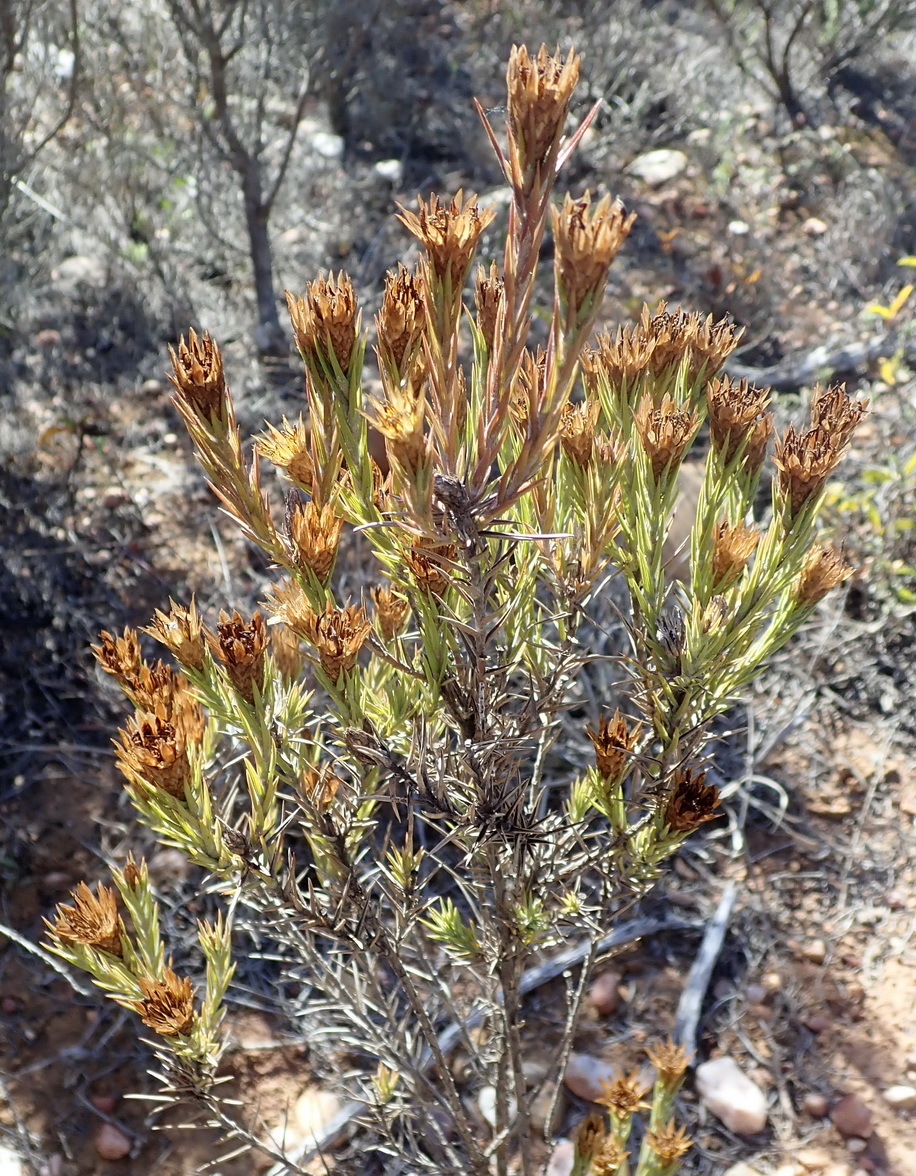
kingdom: Plantae
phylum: Tracheophyta
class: Magnoliopsida
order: Asterales
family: Asteraceae
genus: Oedera
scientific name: Oedera pungens
